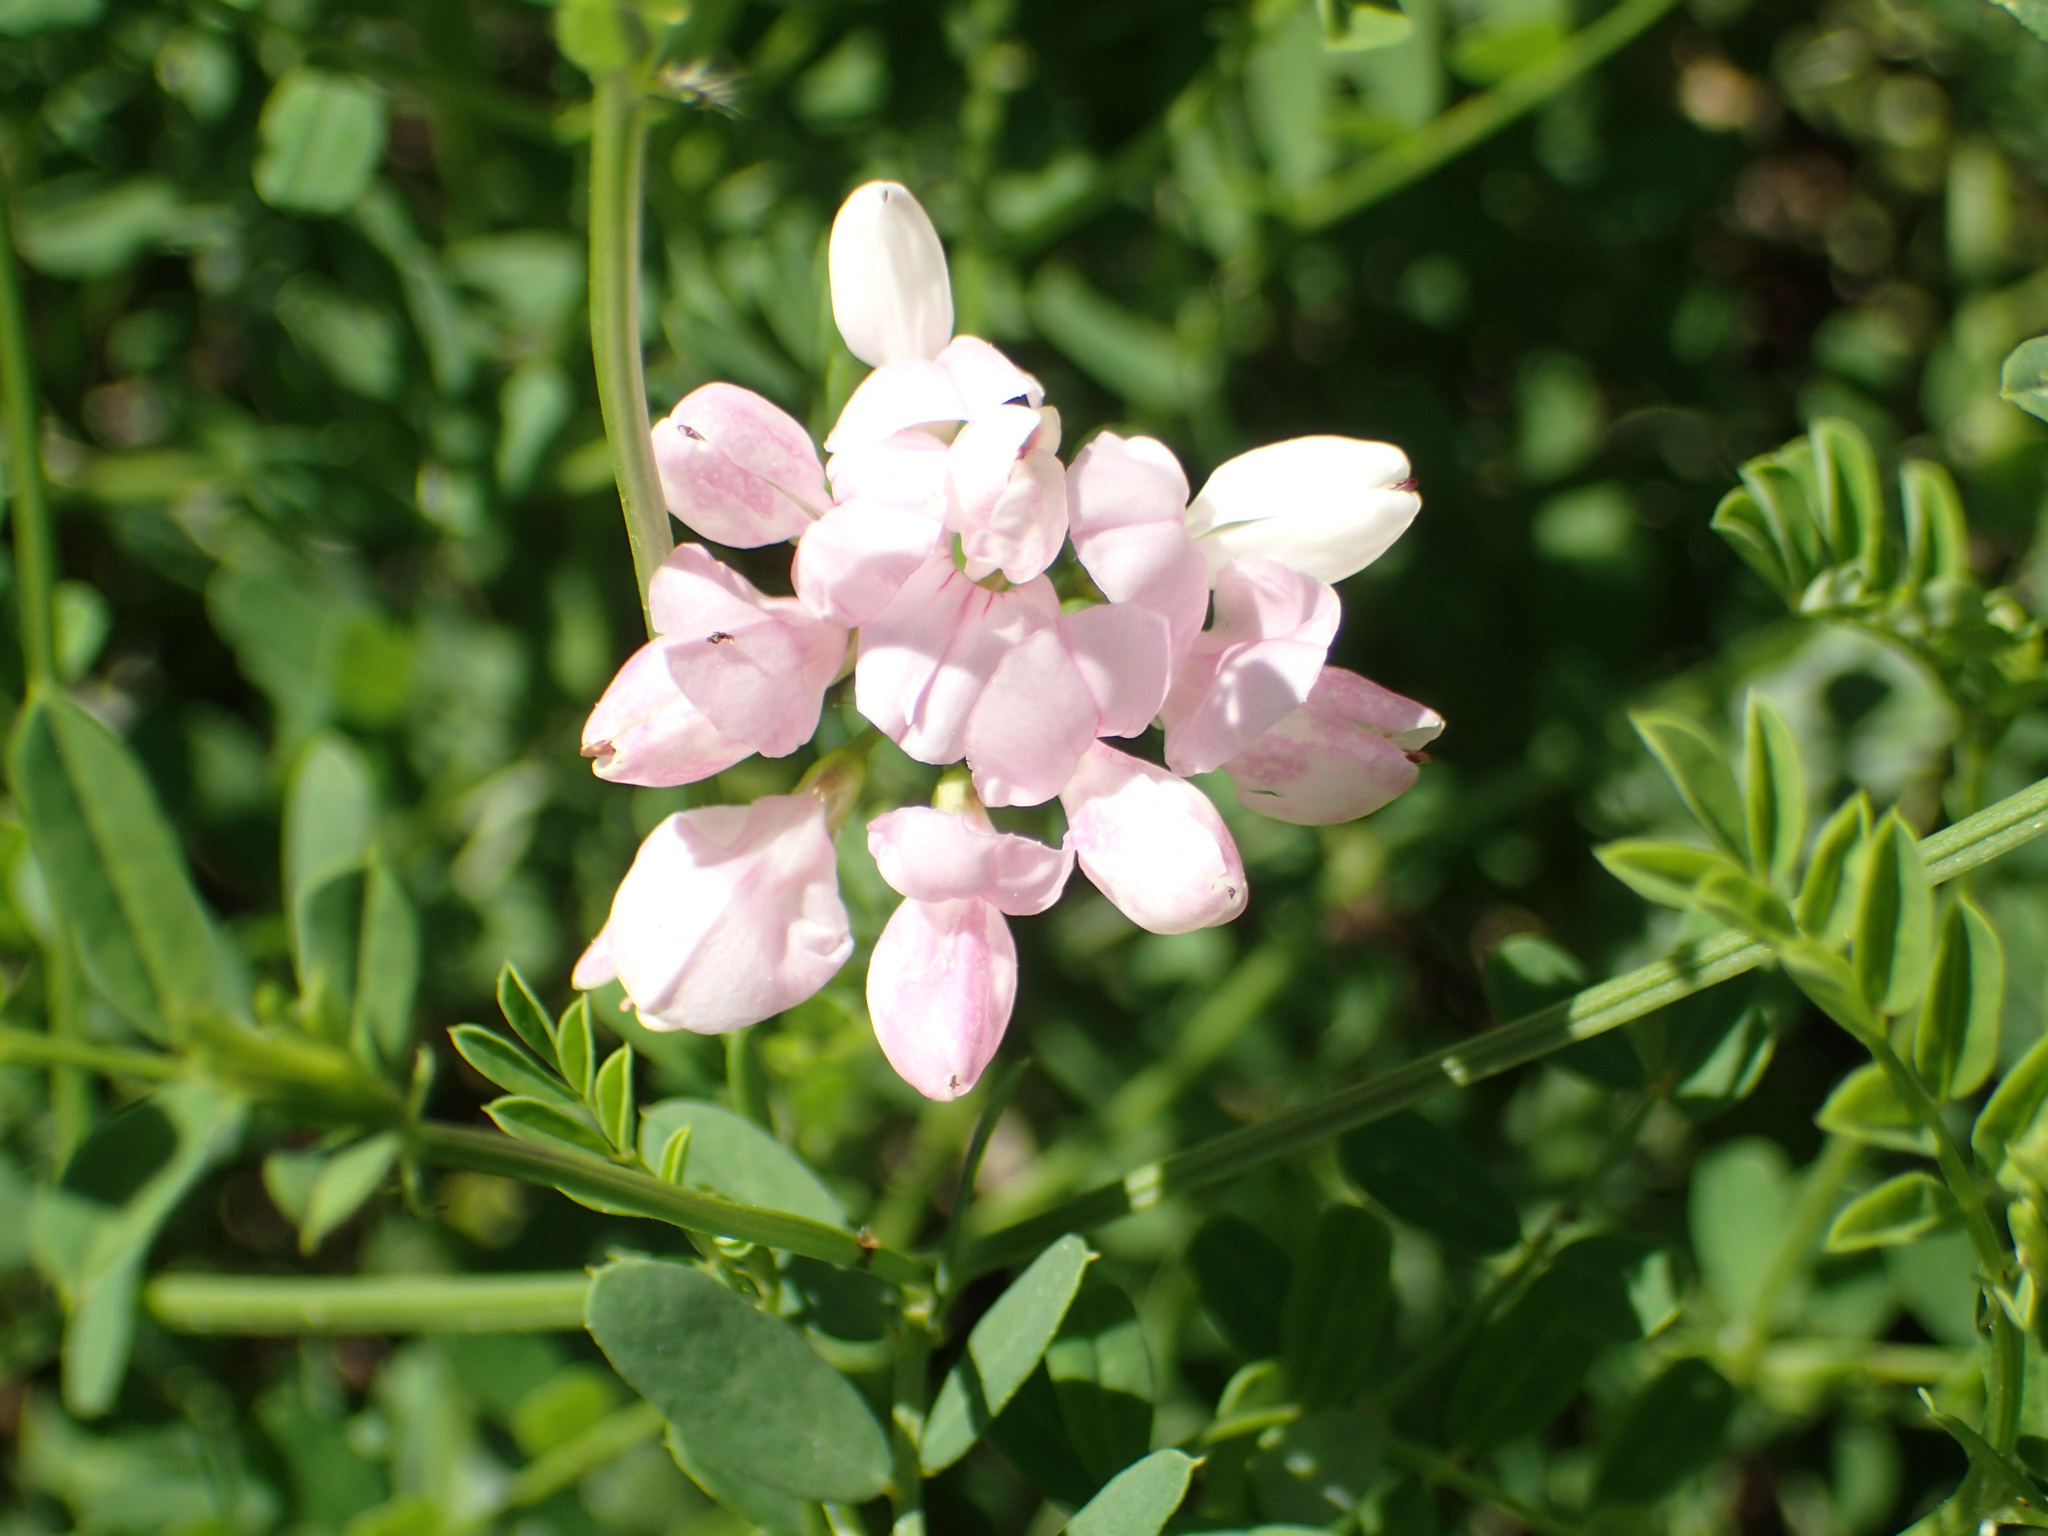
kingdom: Plantae
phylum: Tracheophyta
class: Magnoliopsida
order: Fabales
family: Fabaceae
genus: Coronilla
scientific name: Coronilla varia
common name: Crownvetch
